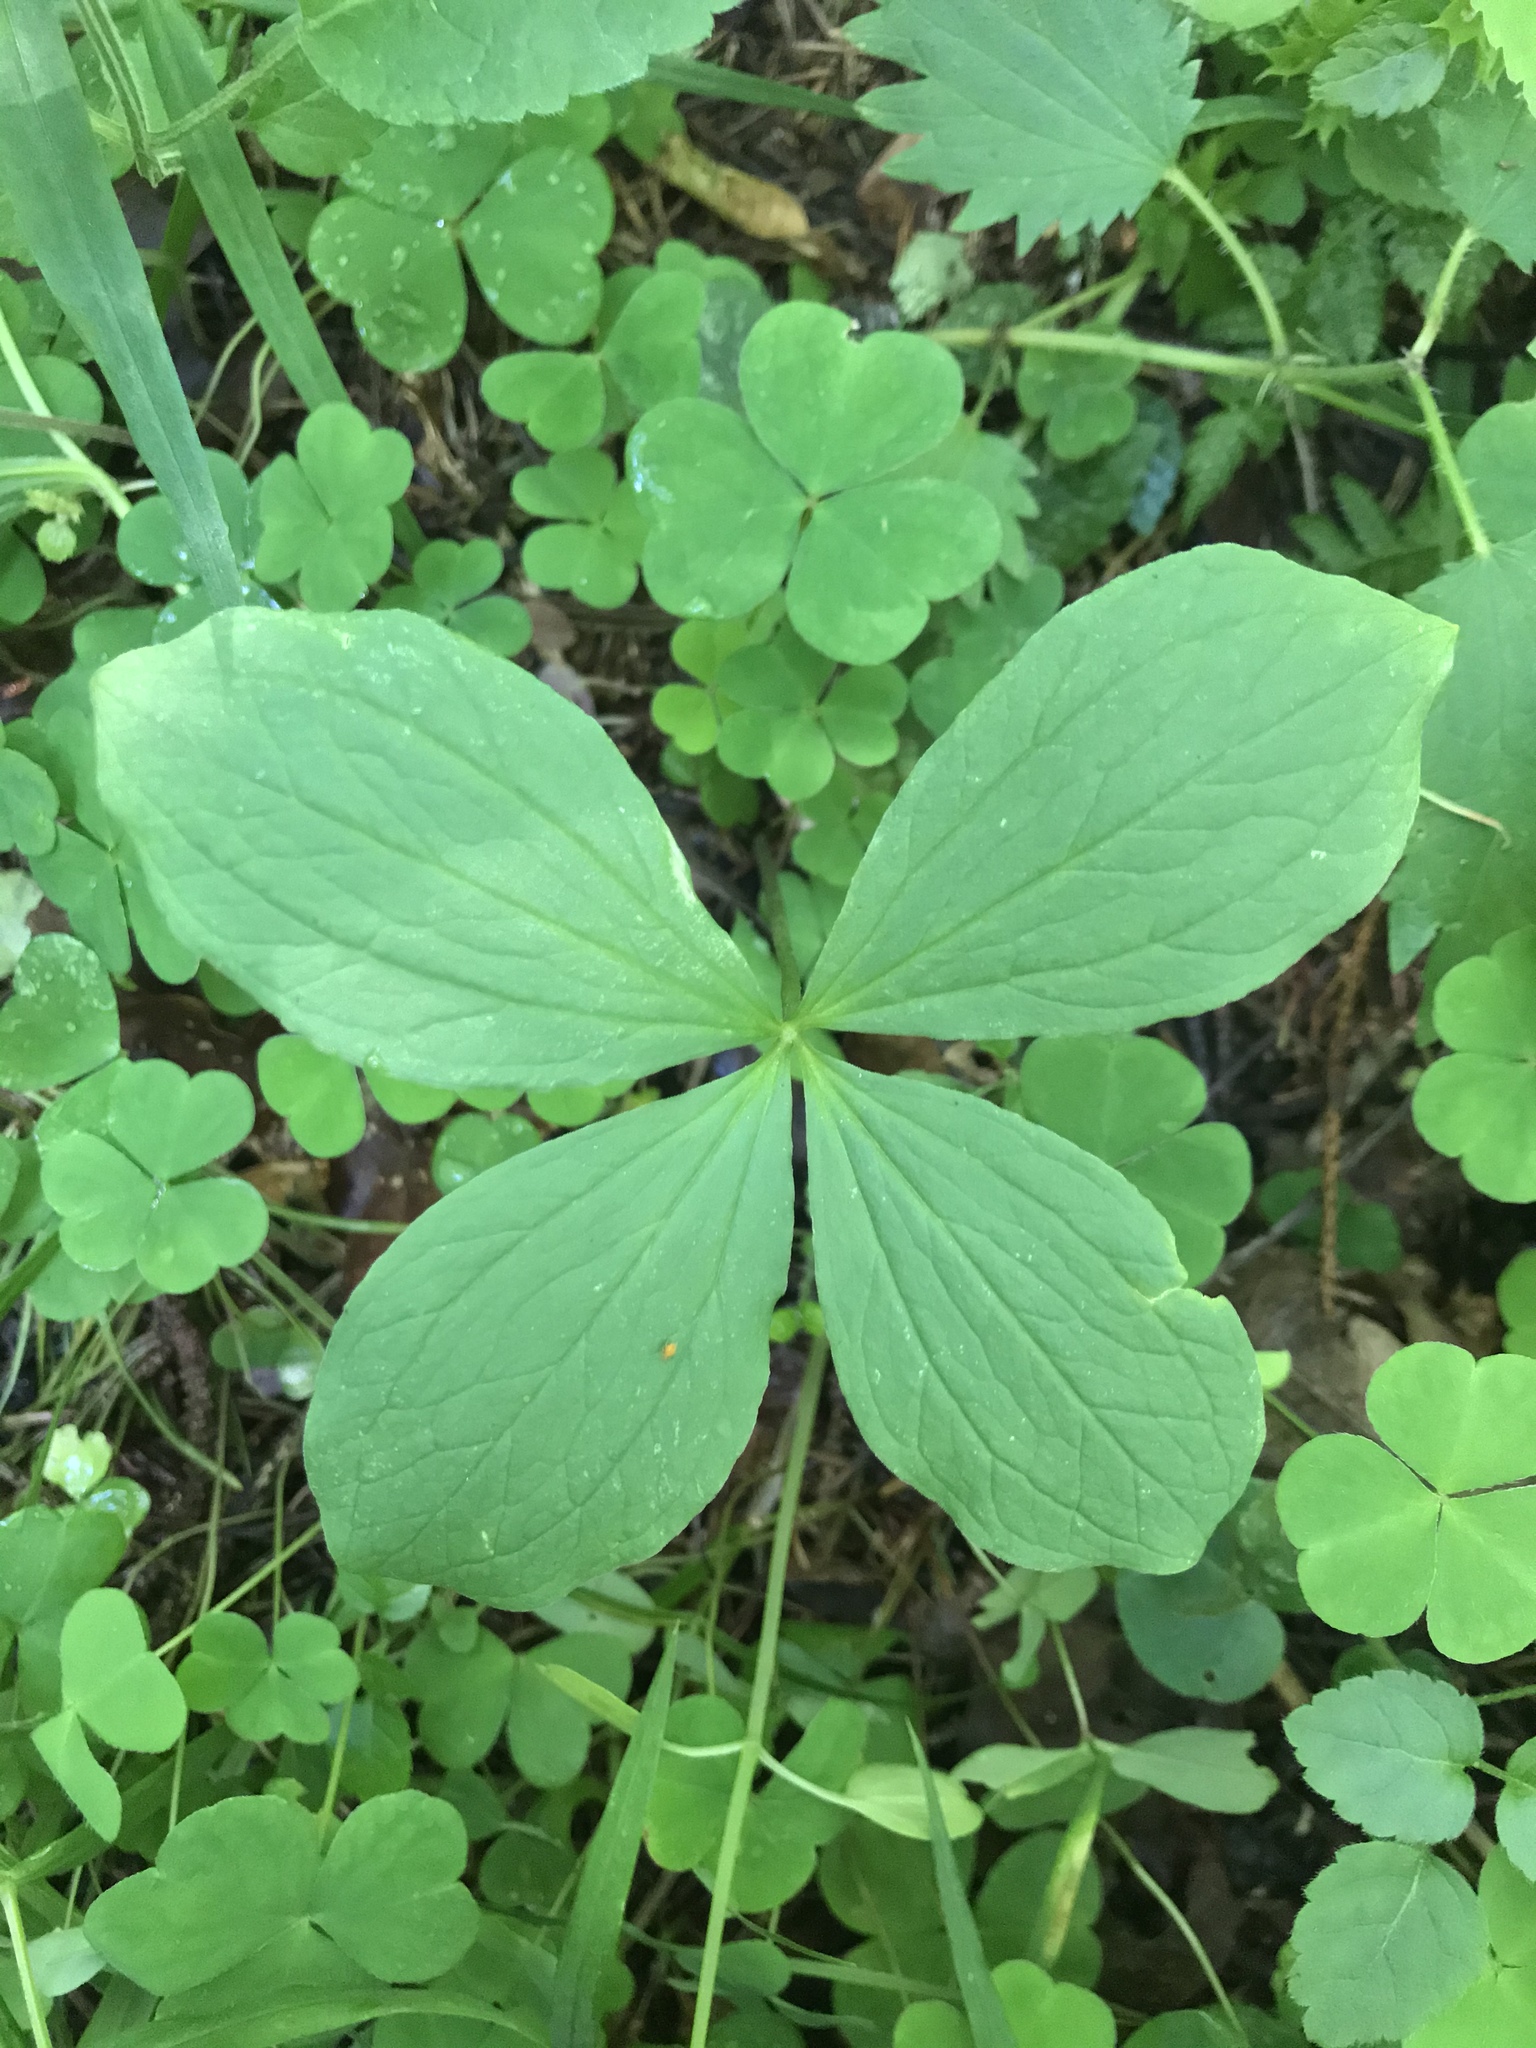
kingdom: Plantae
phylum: Tracheophyta
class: Liliopsida
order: Liliales
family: Melanthiaceae
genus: Paris
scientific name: Paris quadrifolia
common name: Herb-paris
